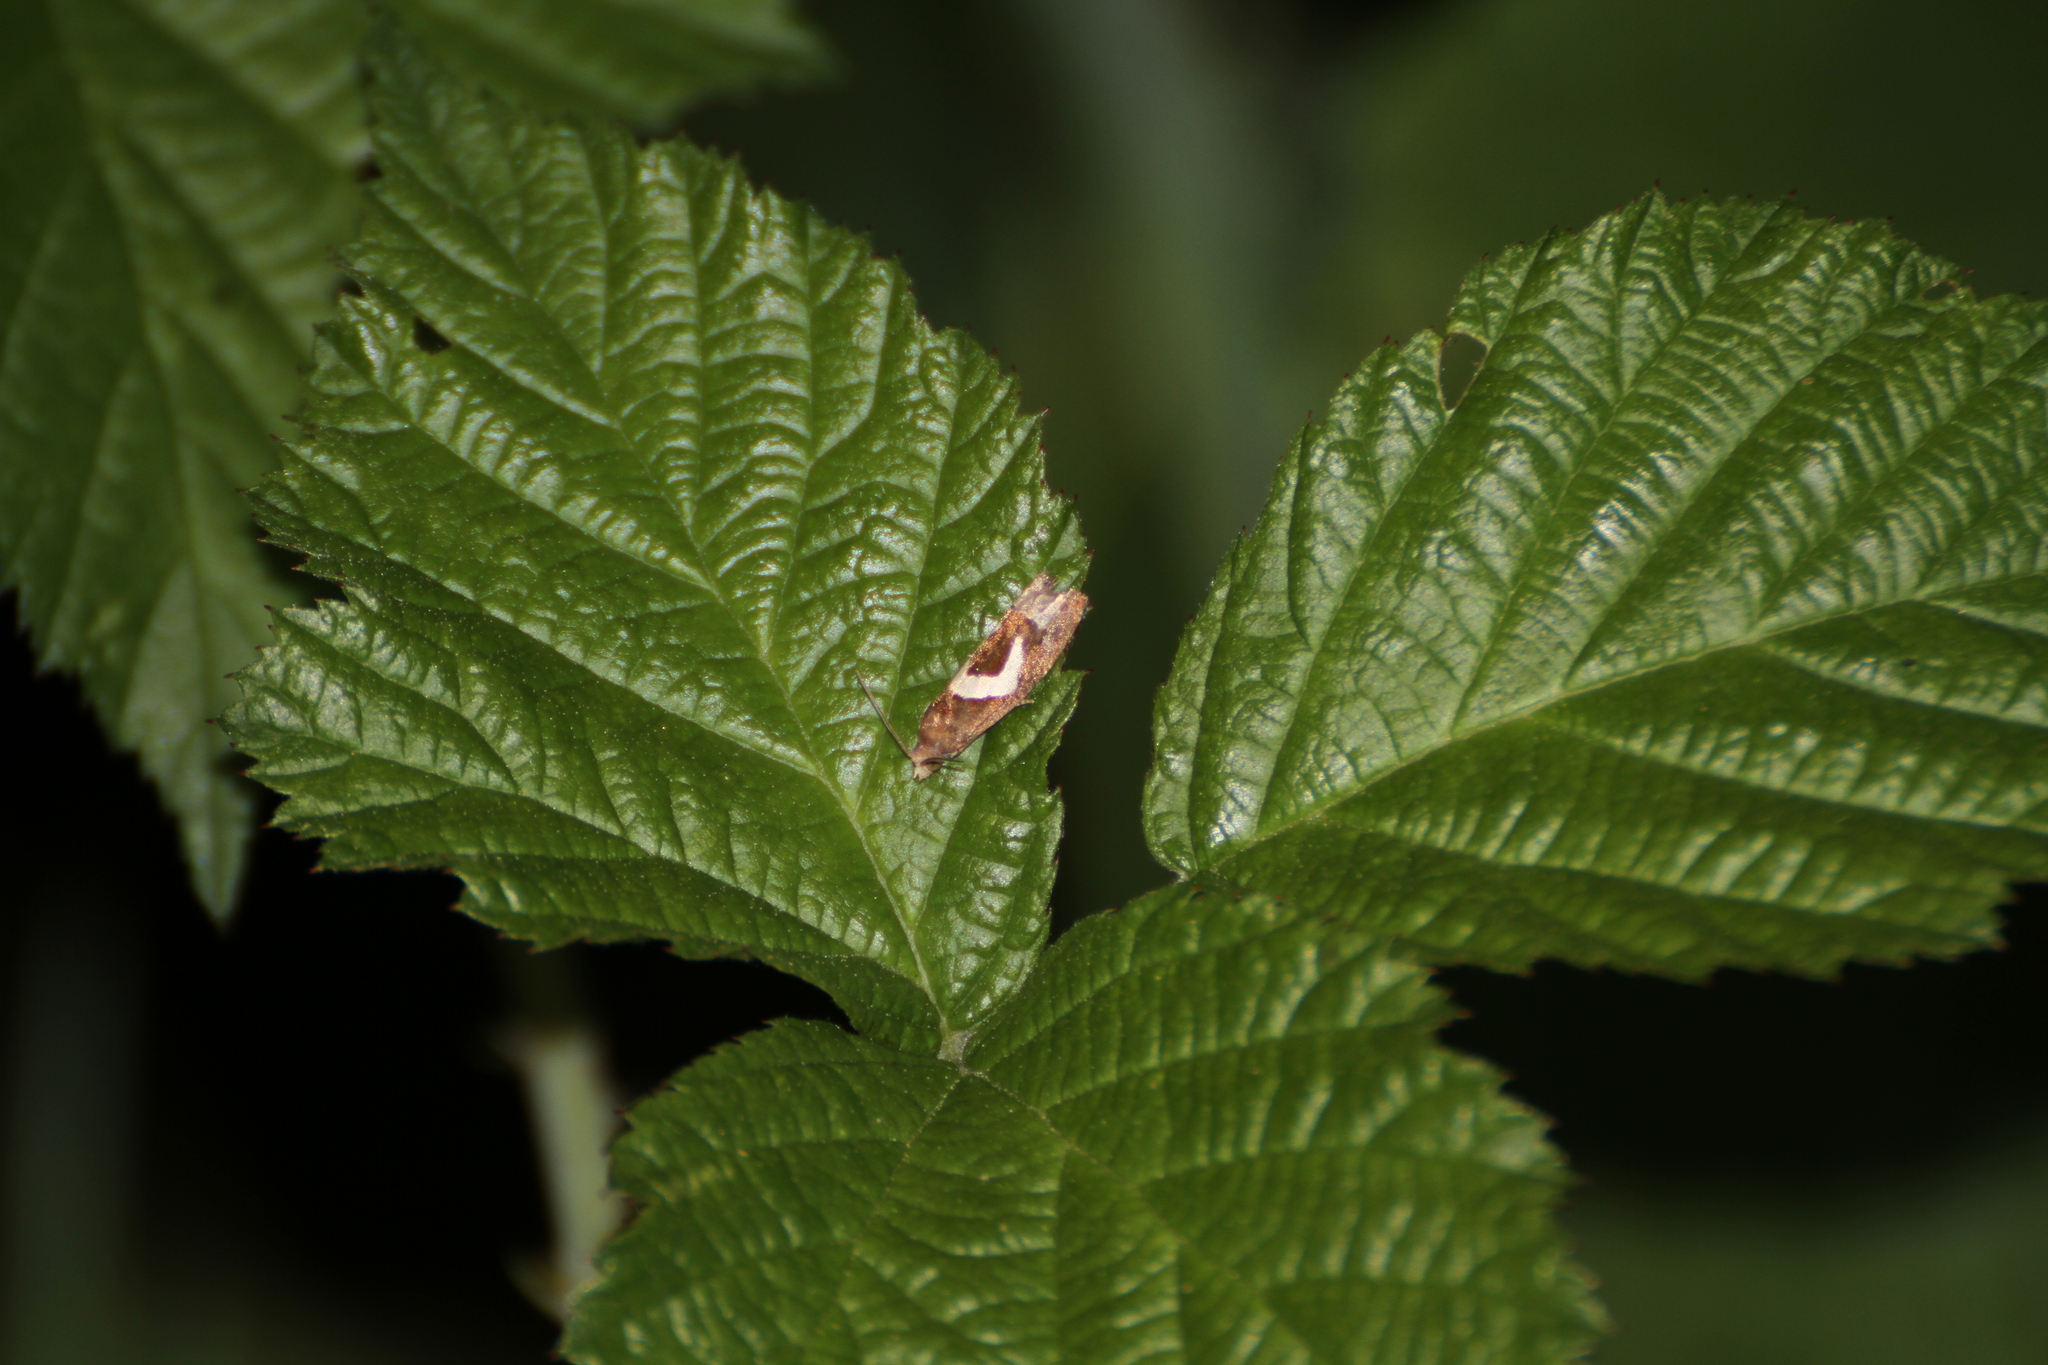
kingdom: Animalia
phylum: Arthropoda
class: Insecta
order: Lepidoptera
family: Tortricidae
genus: Epiblema
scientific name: Epiblema foenella
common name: White-foot bell
